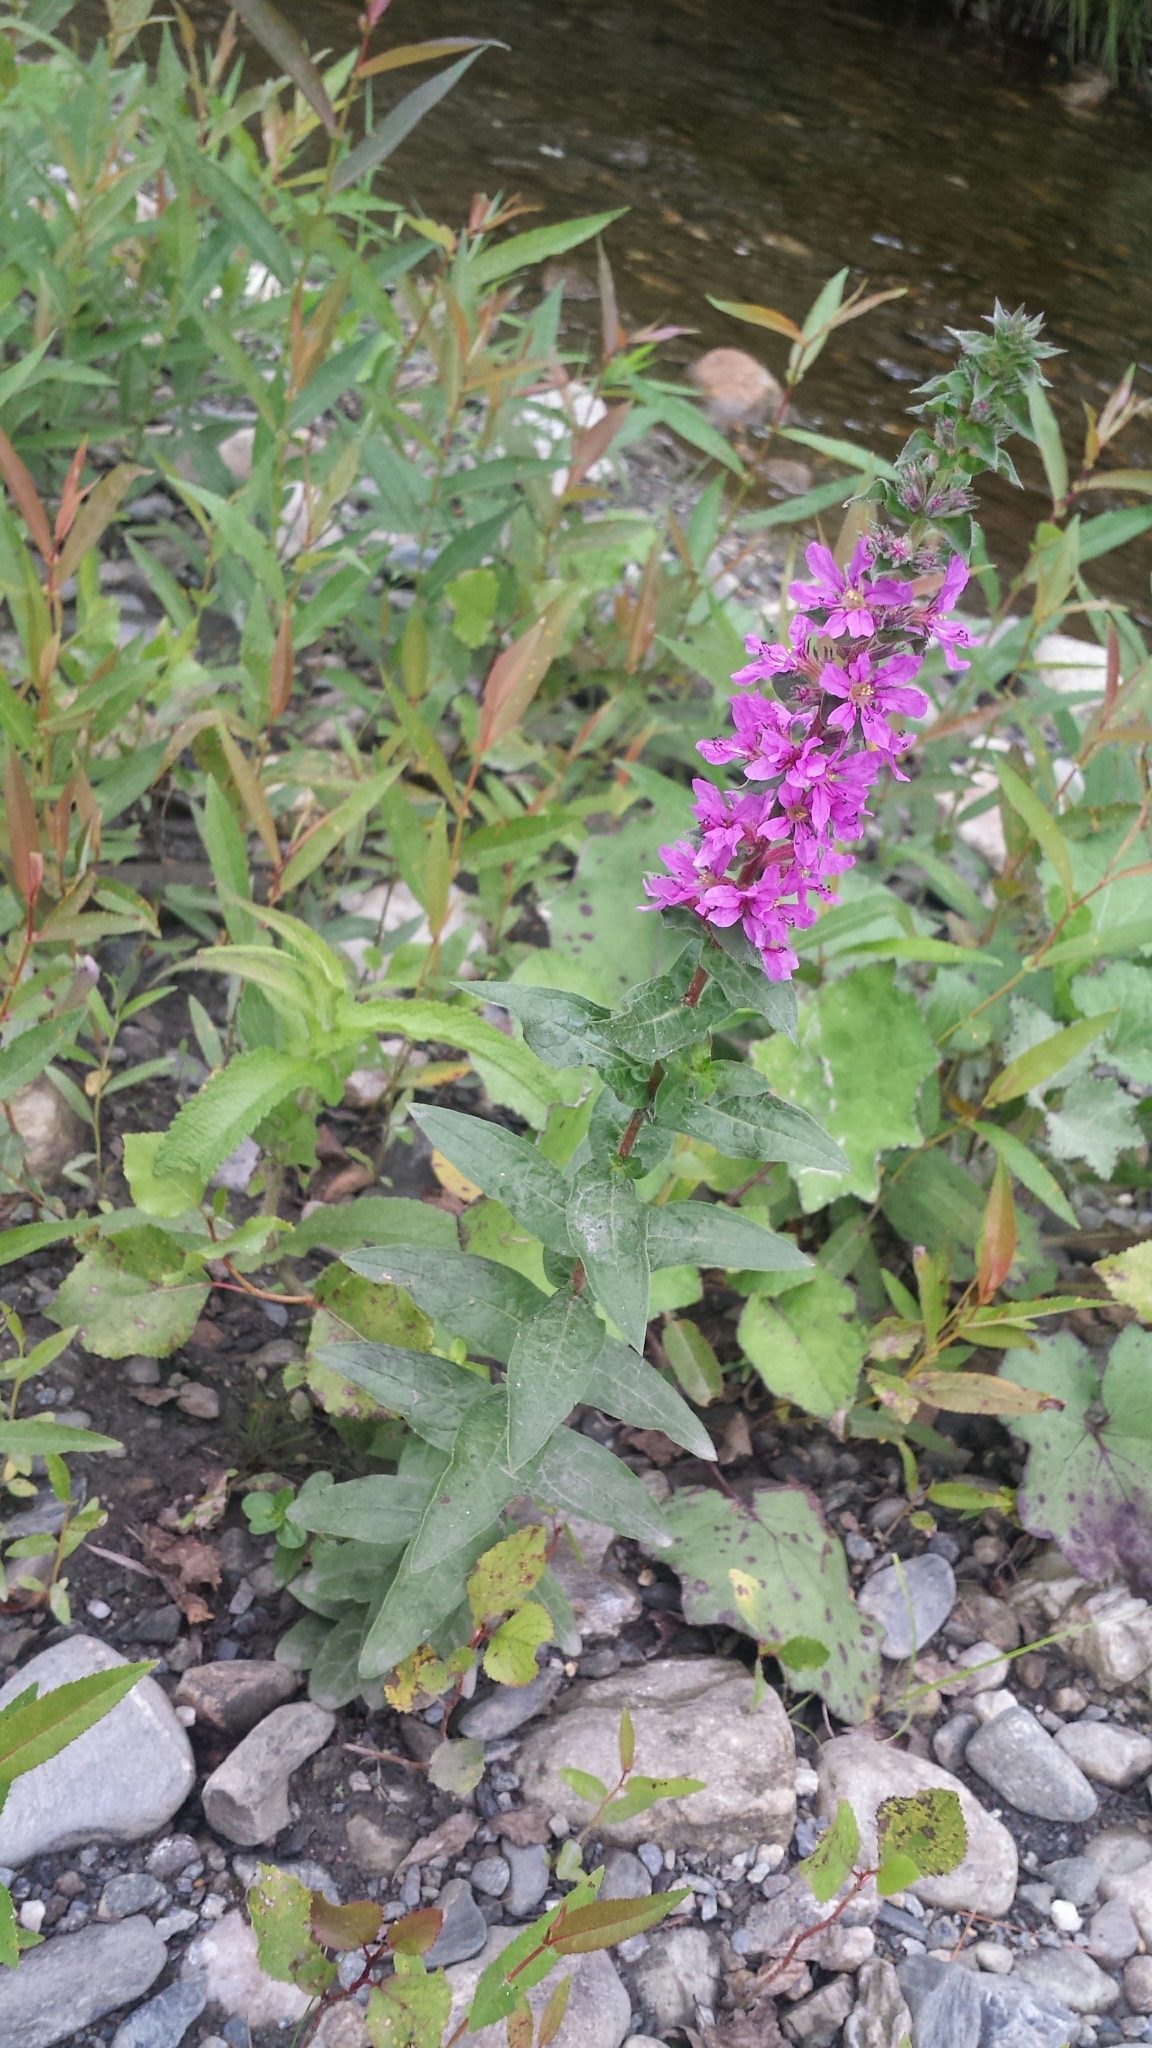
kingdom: Plantae
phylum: Tracheophyta
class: Magnoliopsida
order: Myrtales
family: Lythraceae
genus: Lythrum
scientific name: Lythrum salicaria
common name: Purple loosestrife
